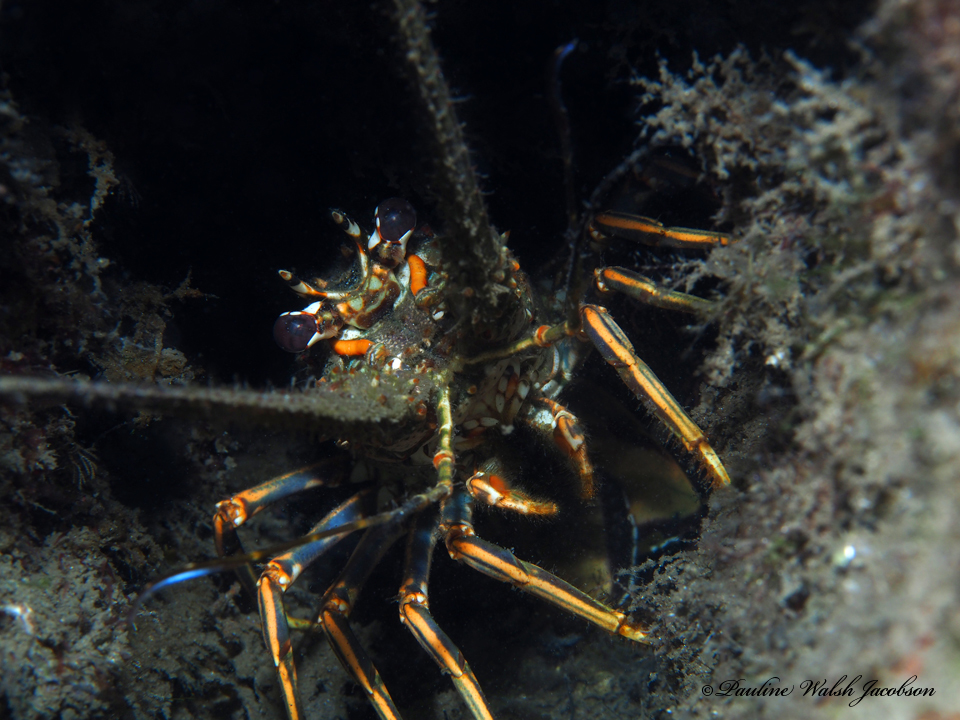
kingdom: Animalia
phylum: Arthropoda
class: Malacostraca
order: Decapoda
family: Palinuridae
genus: Panulirus
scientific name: Panulirus argus
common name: Caribbean spiny lobster
